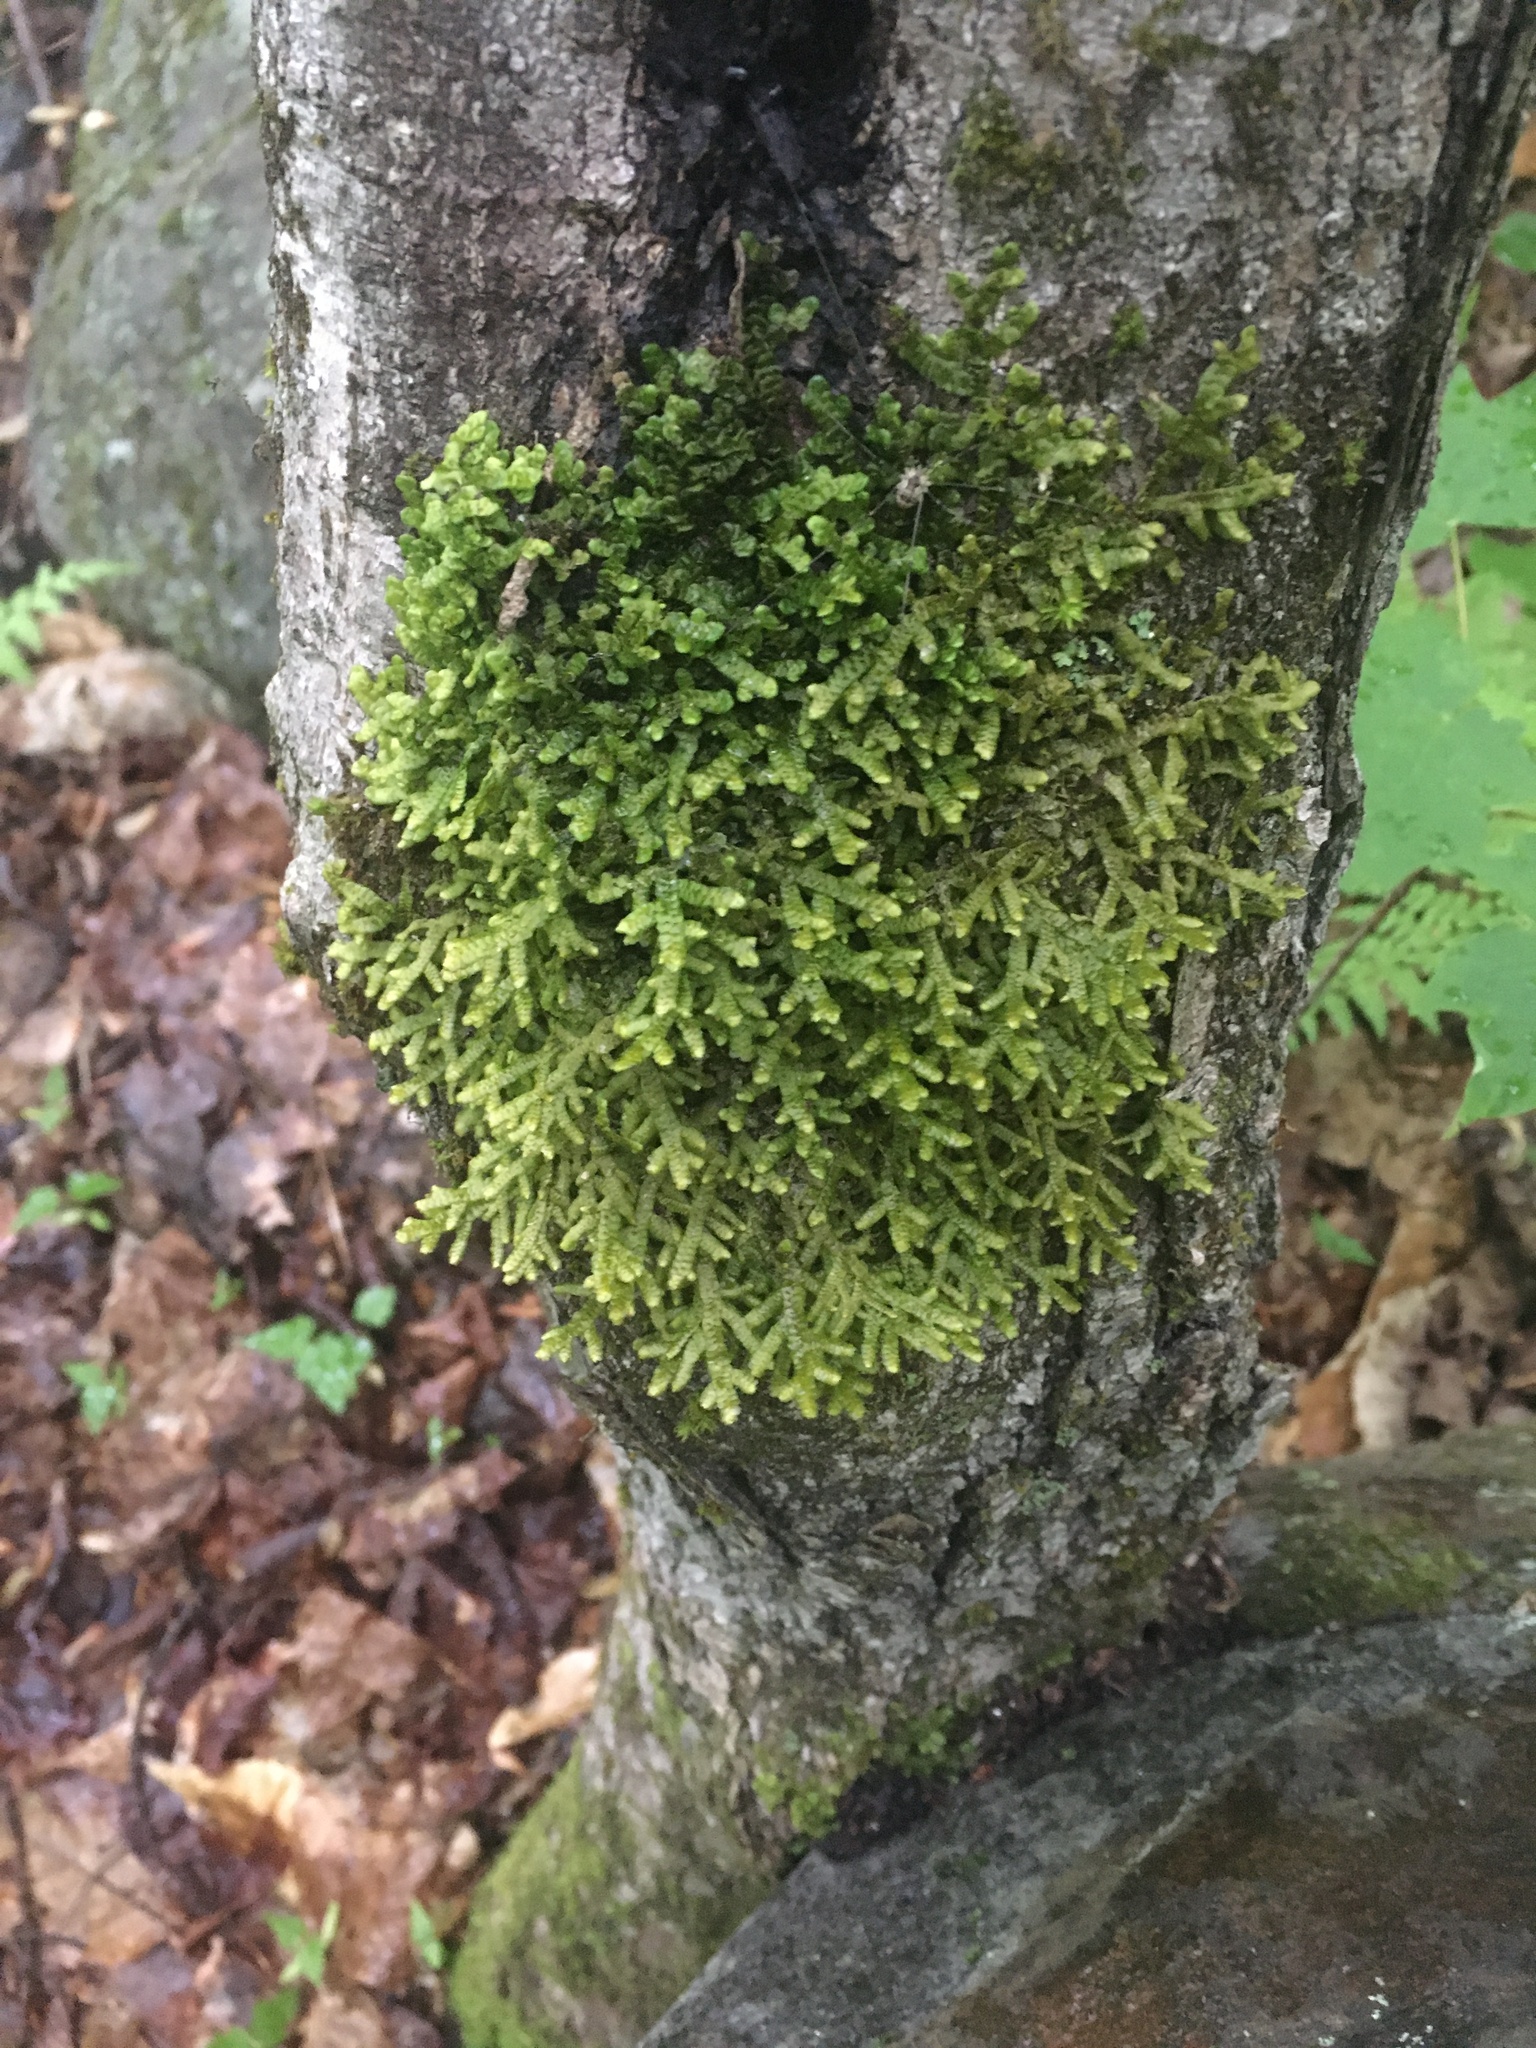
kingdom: Plantae
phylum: Marchantiophyta
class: Jungermanniopsida
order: Porellales
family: Porellaceae
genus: Porella
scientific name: Porella platyphylla
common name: Wall scalewort
